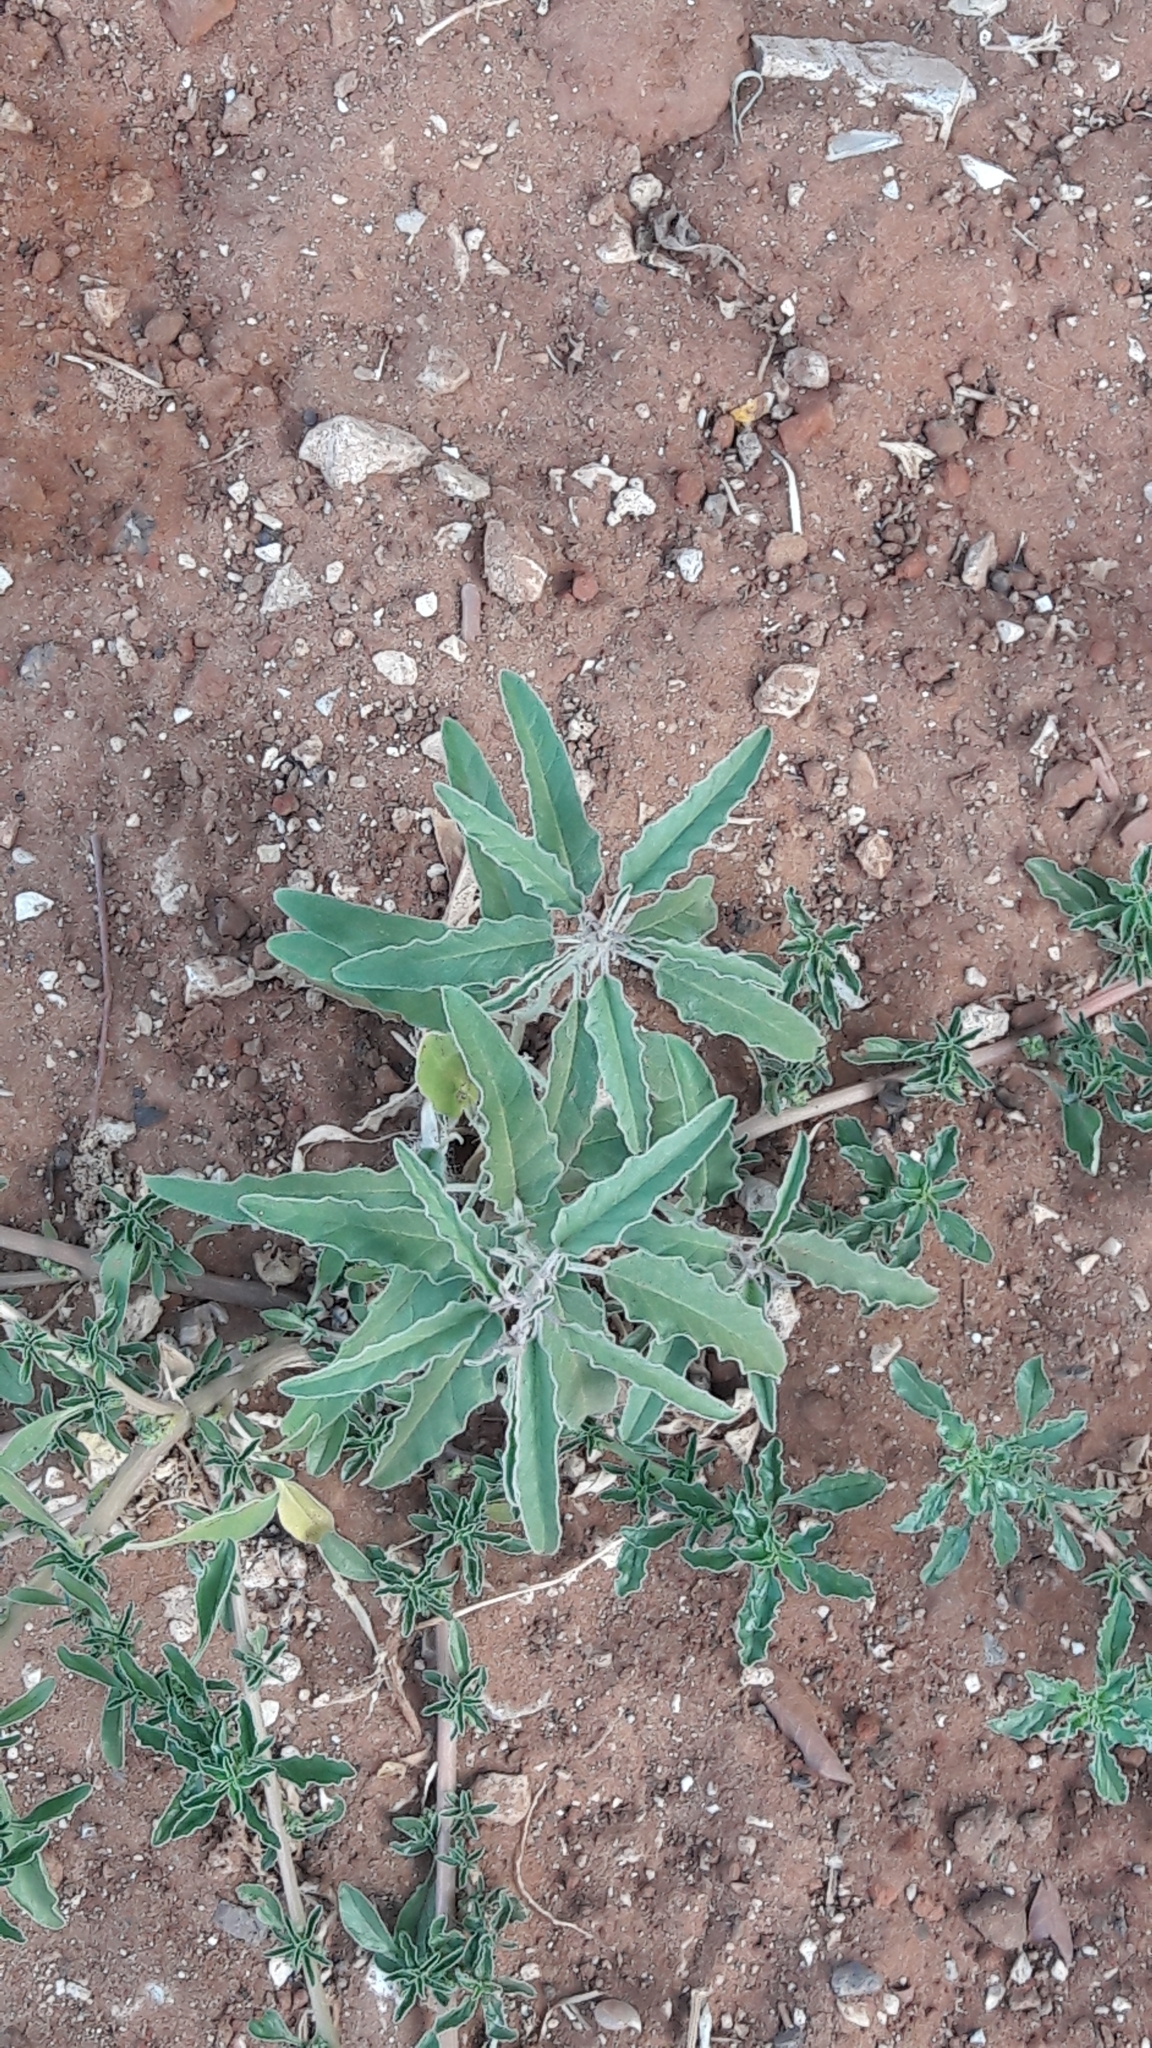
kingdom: Plantae
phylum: Tracheophyta
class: Magnoliopsida
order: Solanales
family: Solanaceae
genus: Solanum
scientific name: Solanum elaeagnifolium
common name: Silverleaf nightshade
